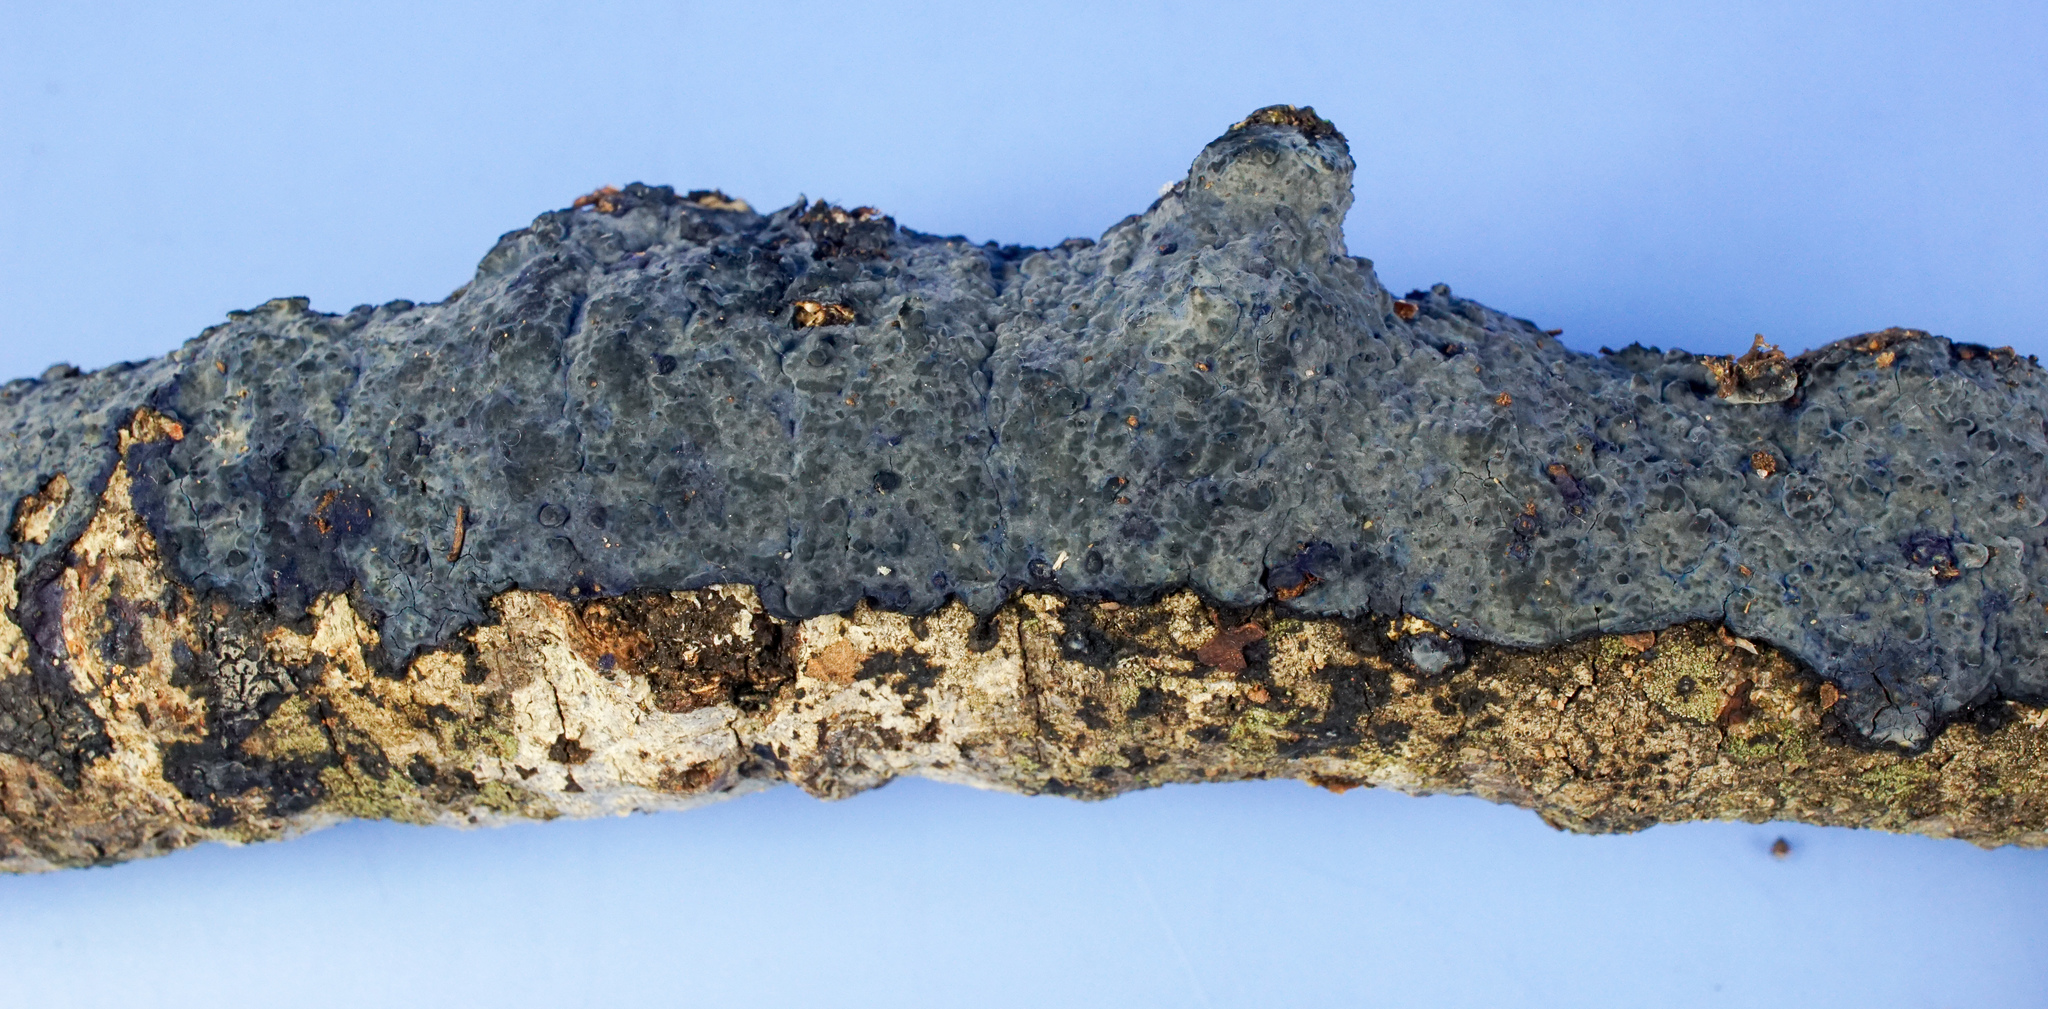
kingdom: Fungi
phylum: Basidiomycota
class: Agaricomycetes
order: Polyporales
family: Phanerochaetaceae
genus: Terana
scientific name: Terana coerulea
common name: Cobalt crust
